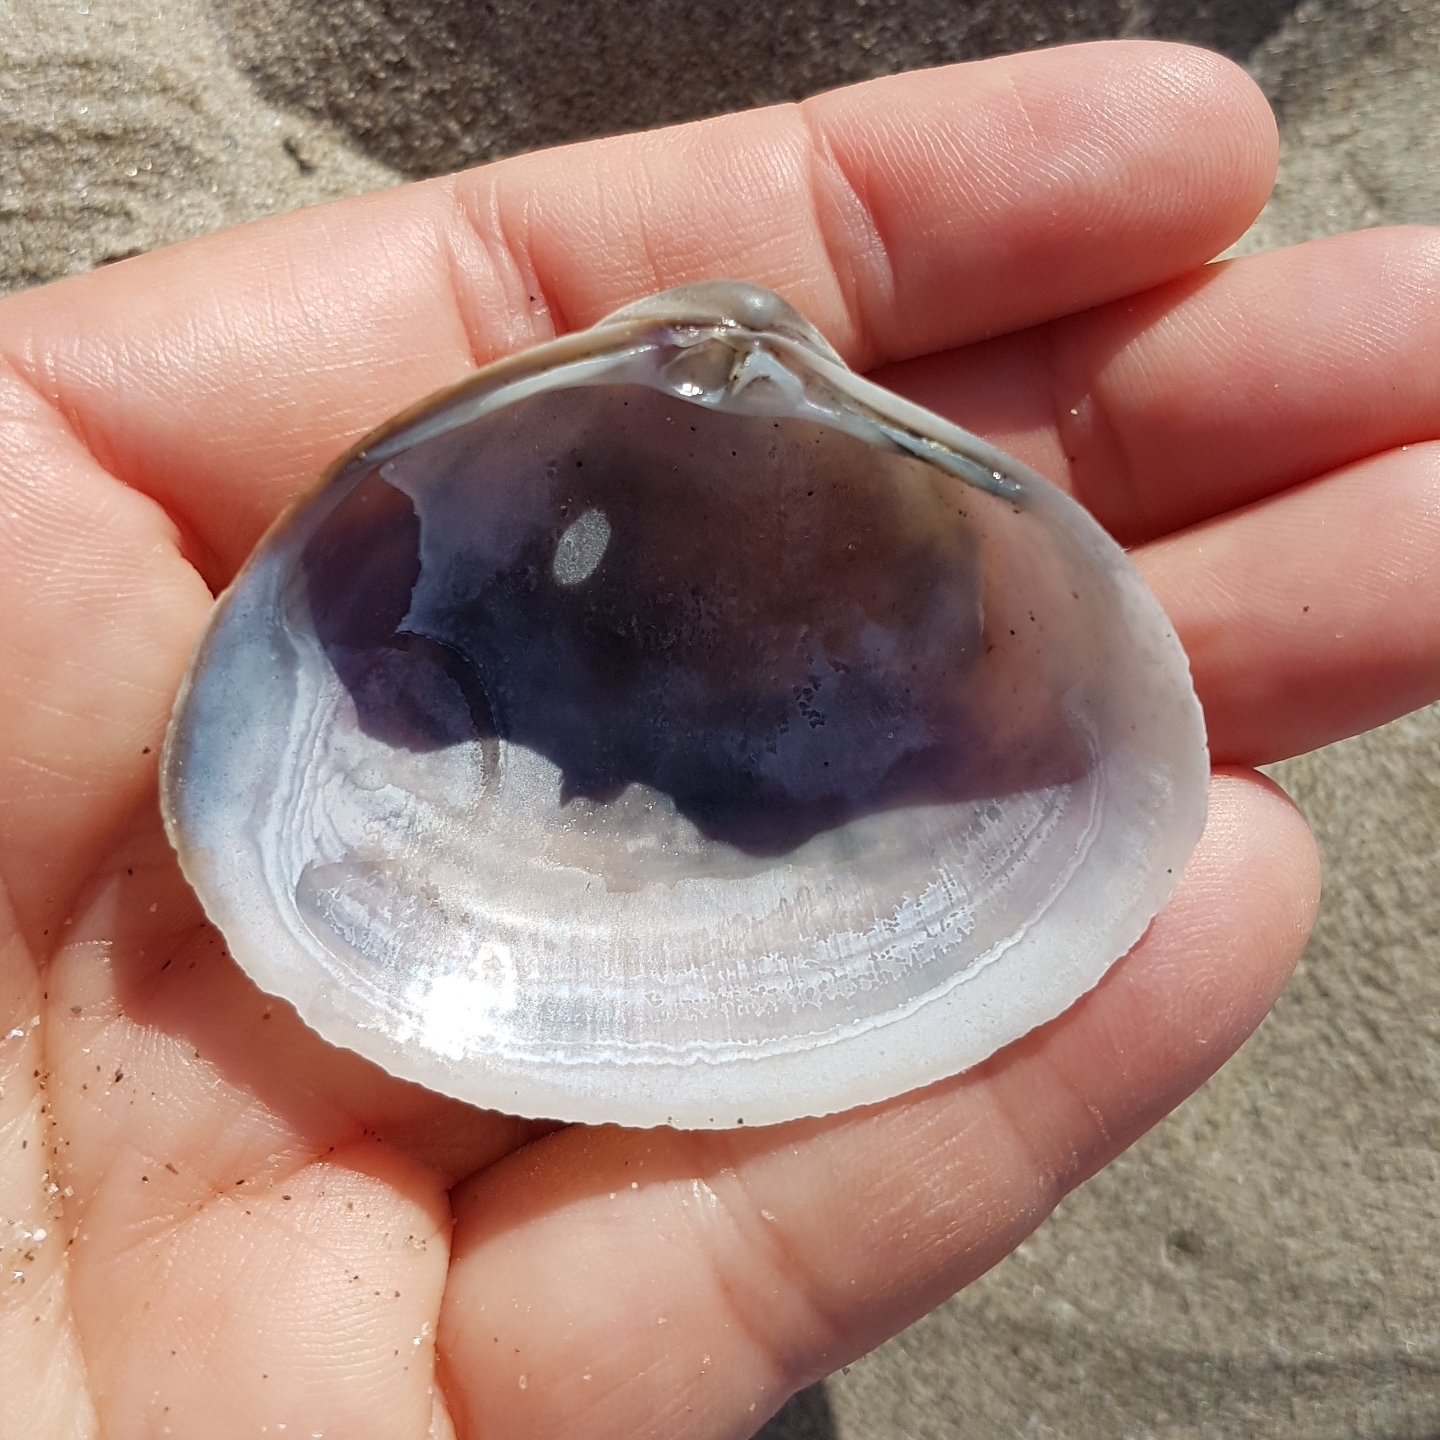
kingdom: Animalia
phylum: Mollusca
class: Bivalvia
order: Venerida
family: Mactridae
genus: Mactra
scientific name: Mactra stultorum
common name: Rayed trough shell
